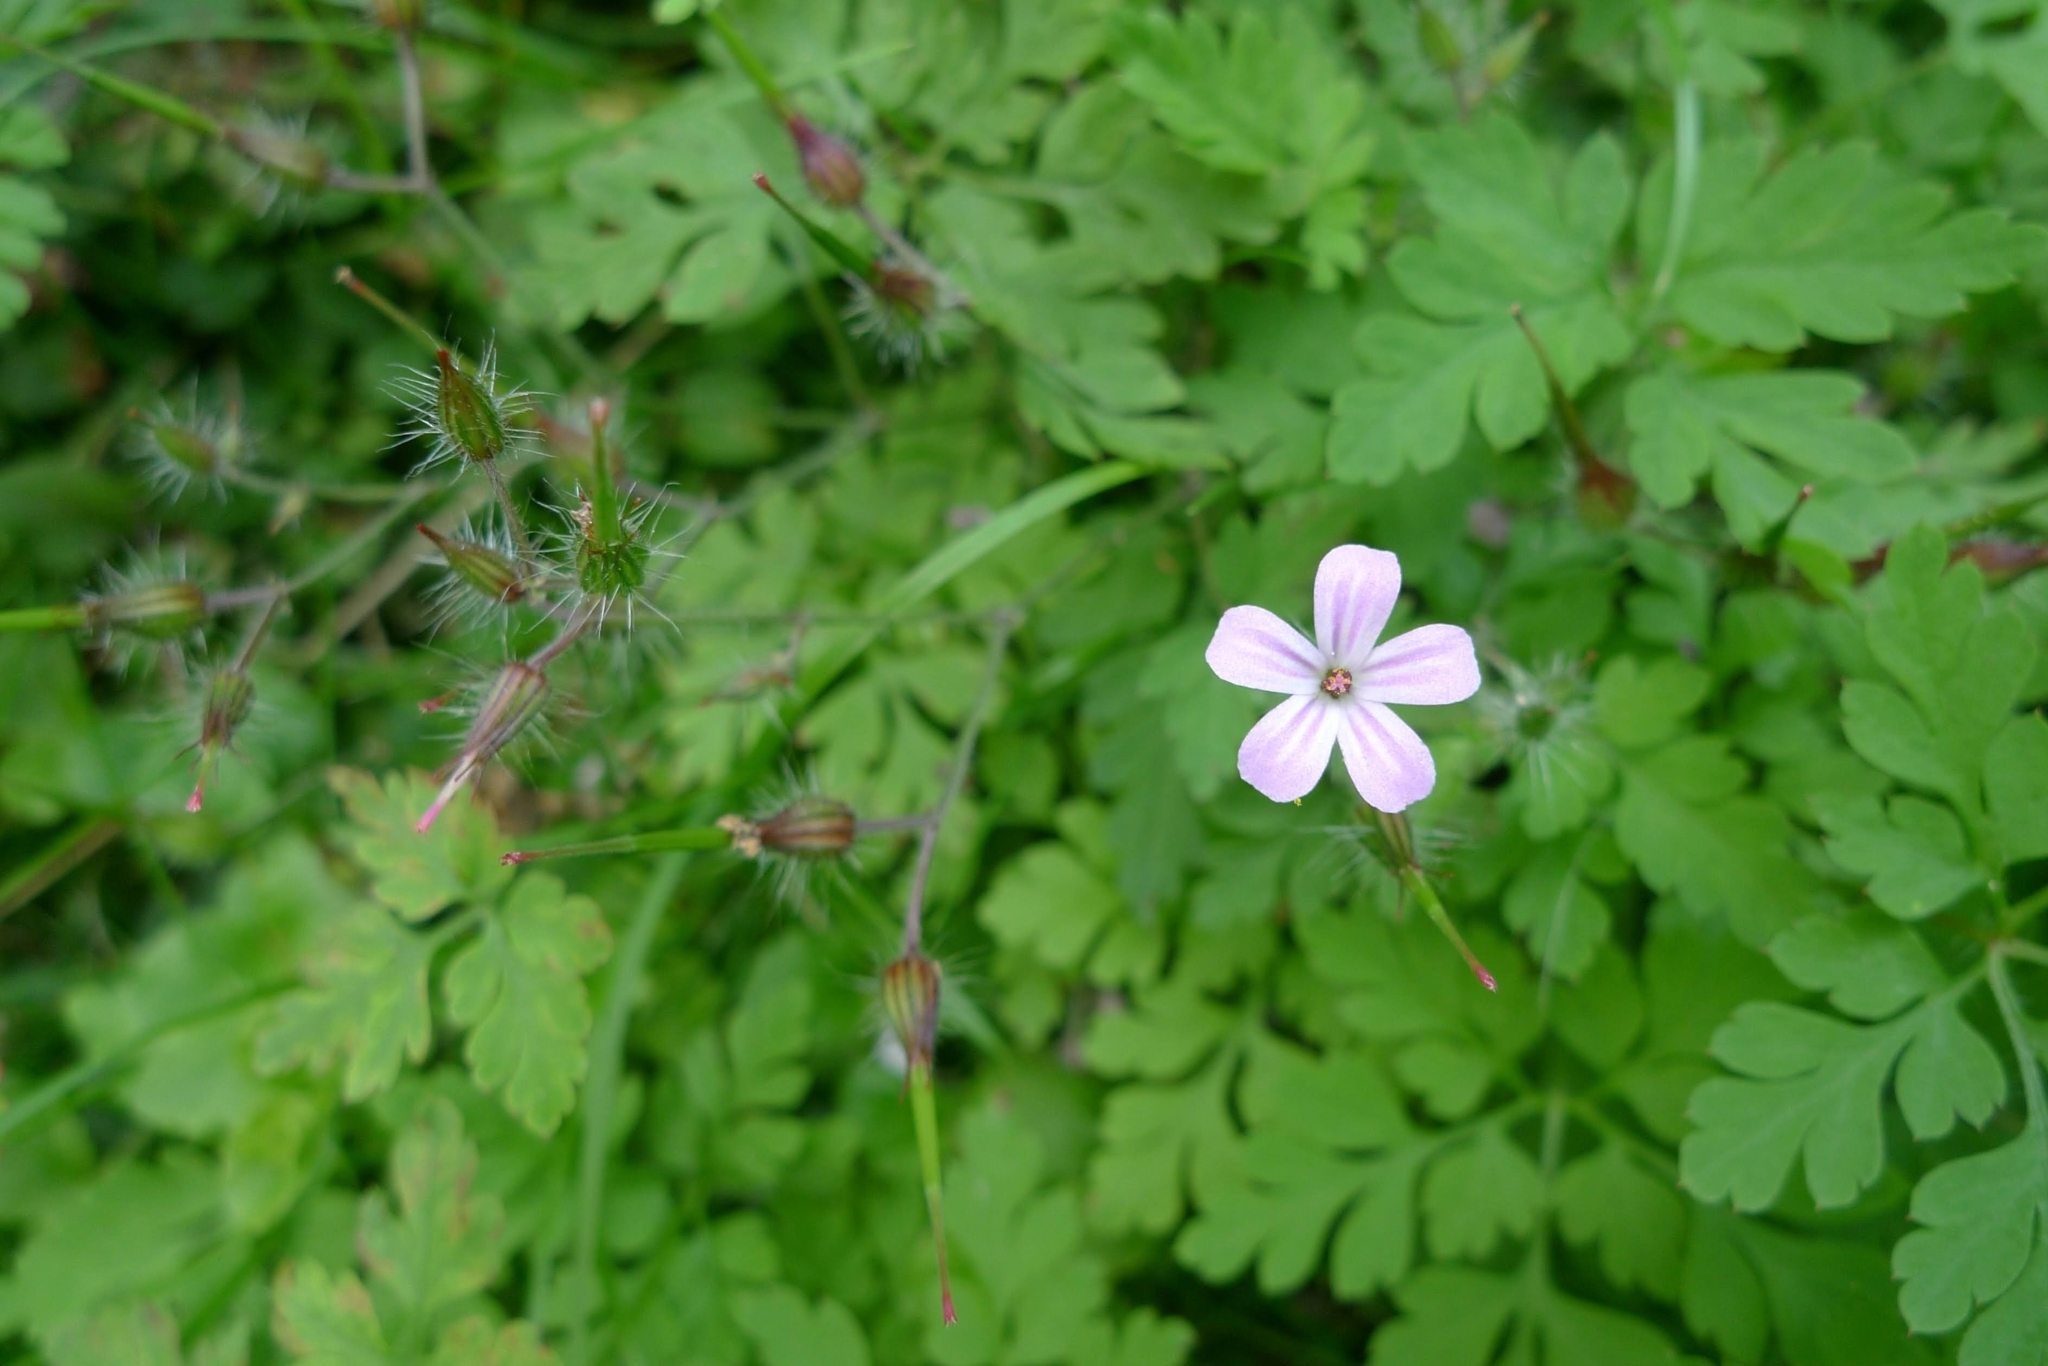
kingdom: Plantae
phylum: Tracheophyta
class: Magnoliopsida
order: Geraniales
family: Geraniaceae
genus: Geranium
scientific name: Geranium robertianum
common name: Herb-robert
